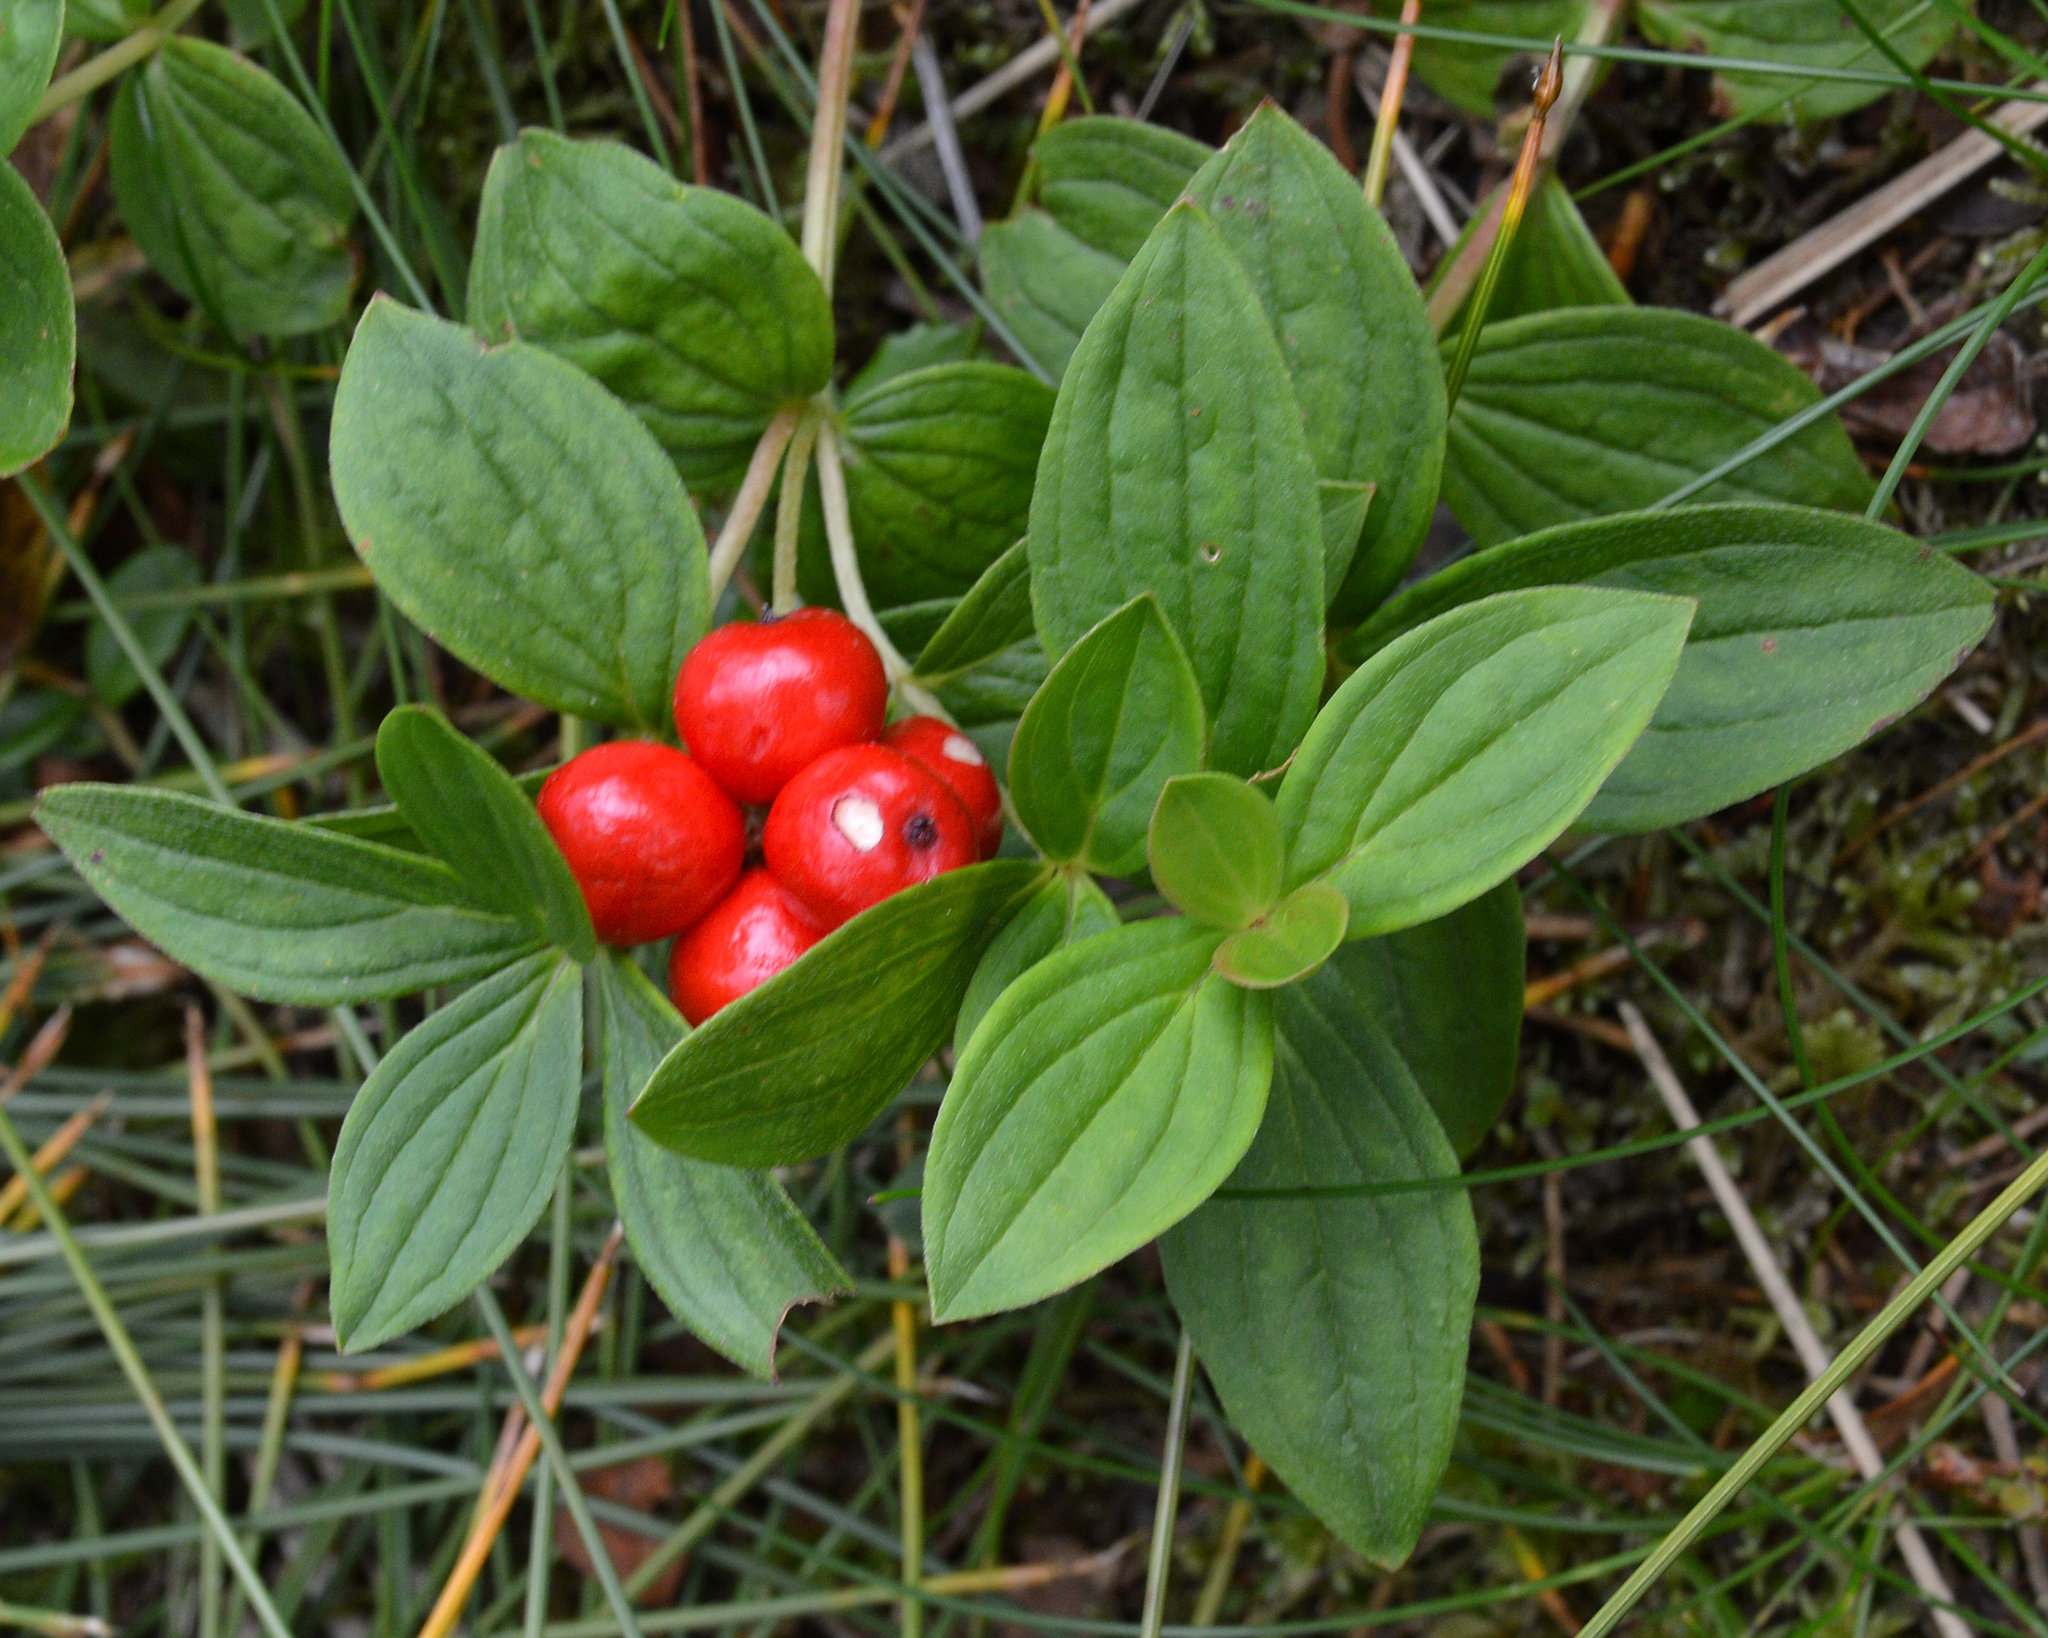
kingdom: Plantae
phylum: Tracheophyta
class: Magnoliopsida
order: Cornales
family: Cornaceae
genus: Cornus
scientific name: Cornus suecica
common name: Dwarf cornel
